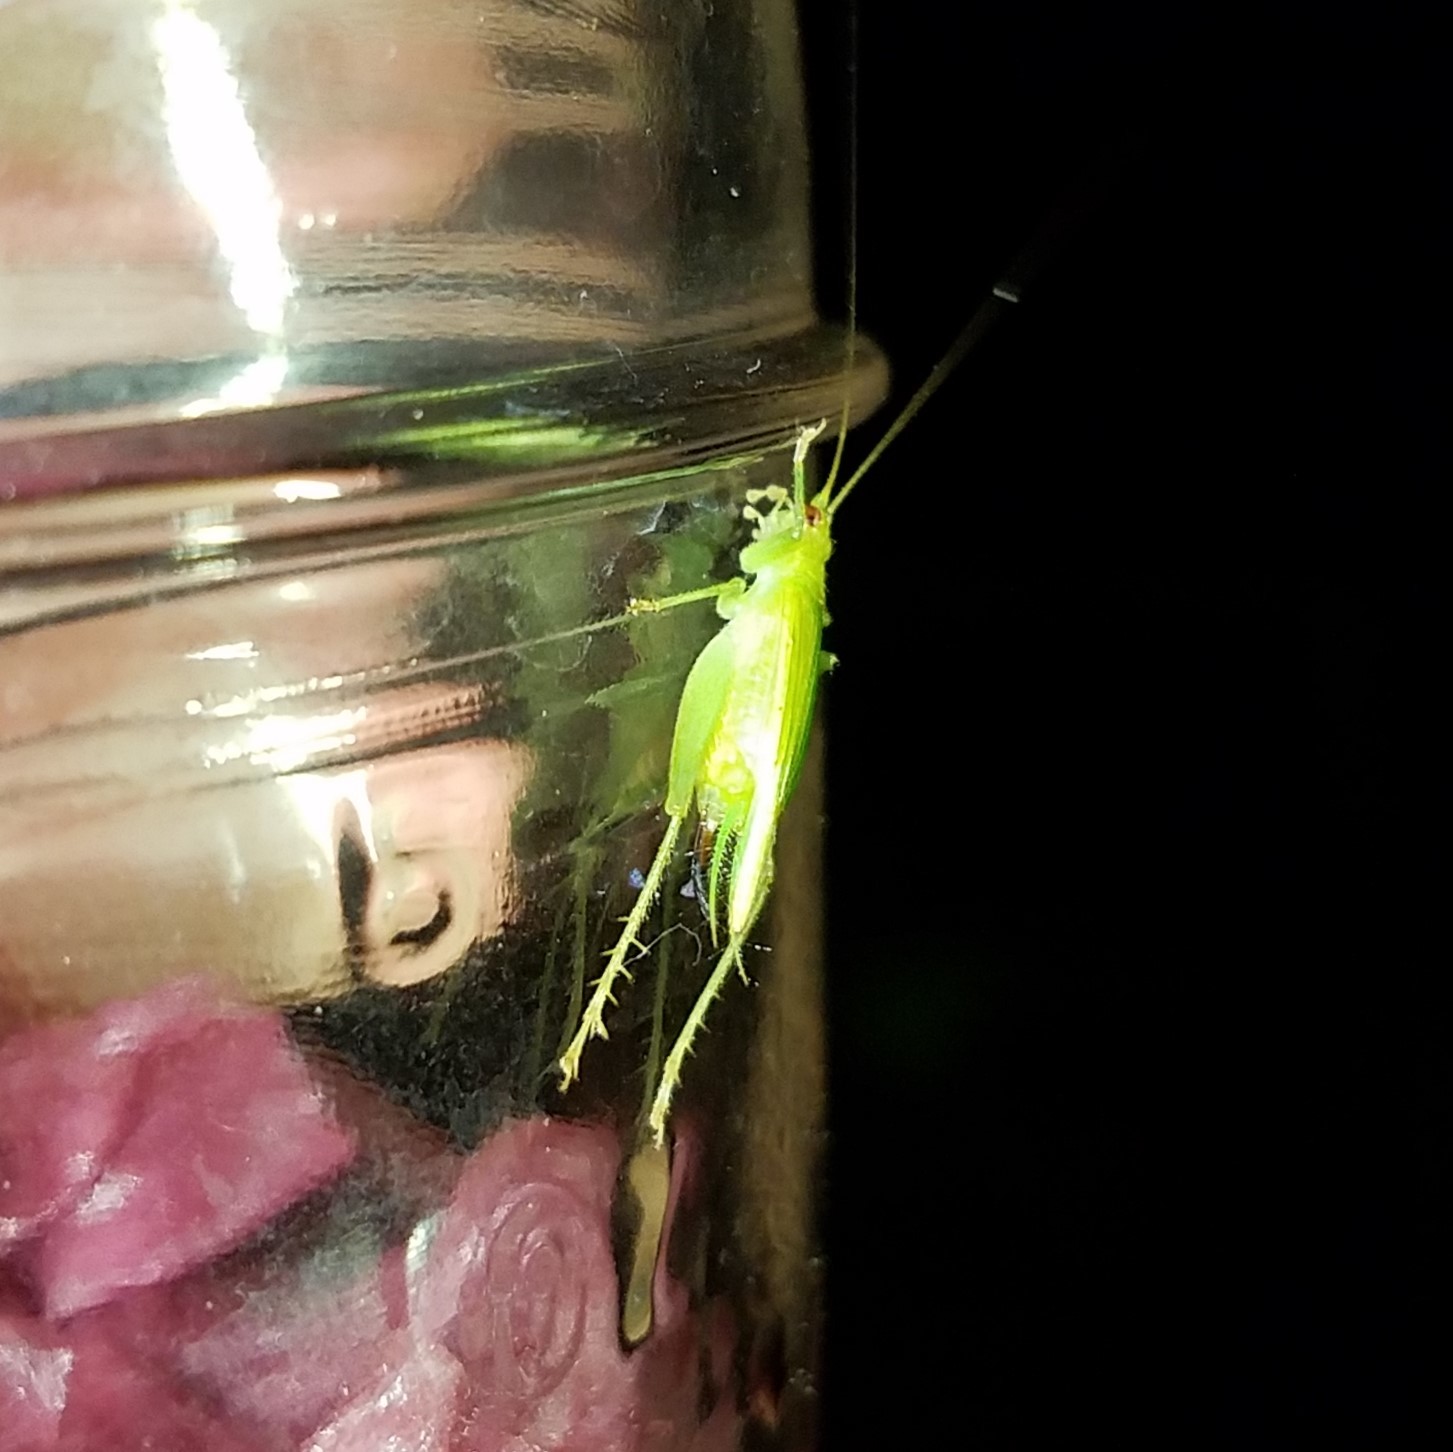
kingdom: Animalia
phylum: Arthropoda
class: Insecta
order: Orthoptera
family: Trigonidiidae
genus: Cyrtoxipha
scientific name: Cyrtoxipha columbiana
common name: Columbian trig
